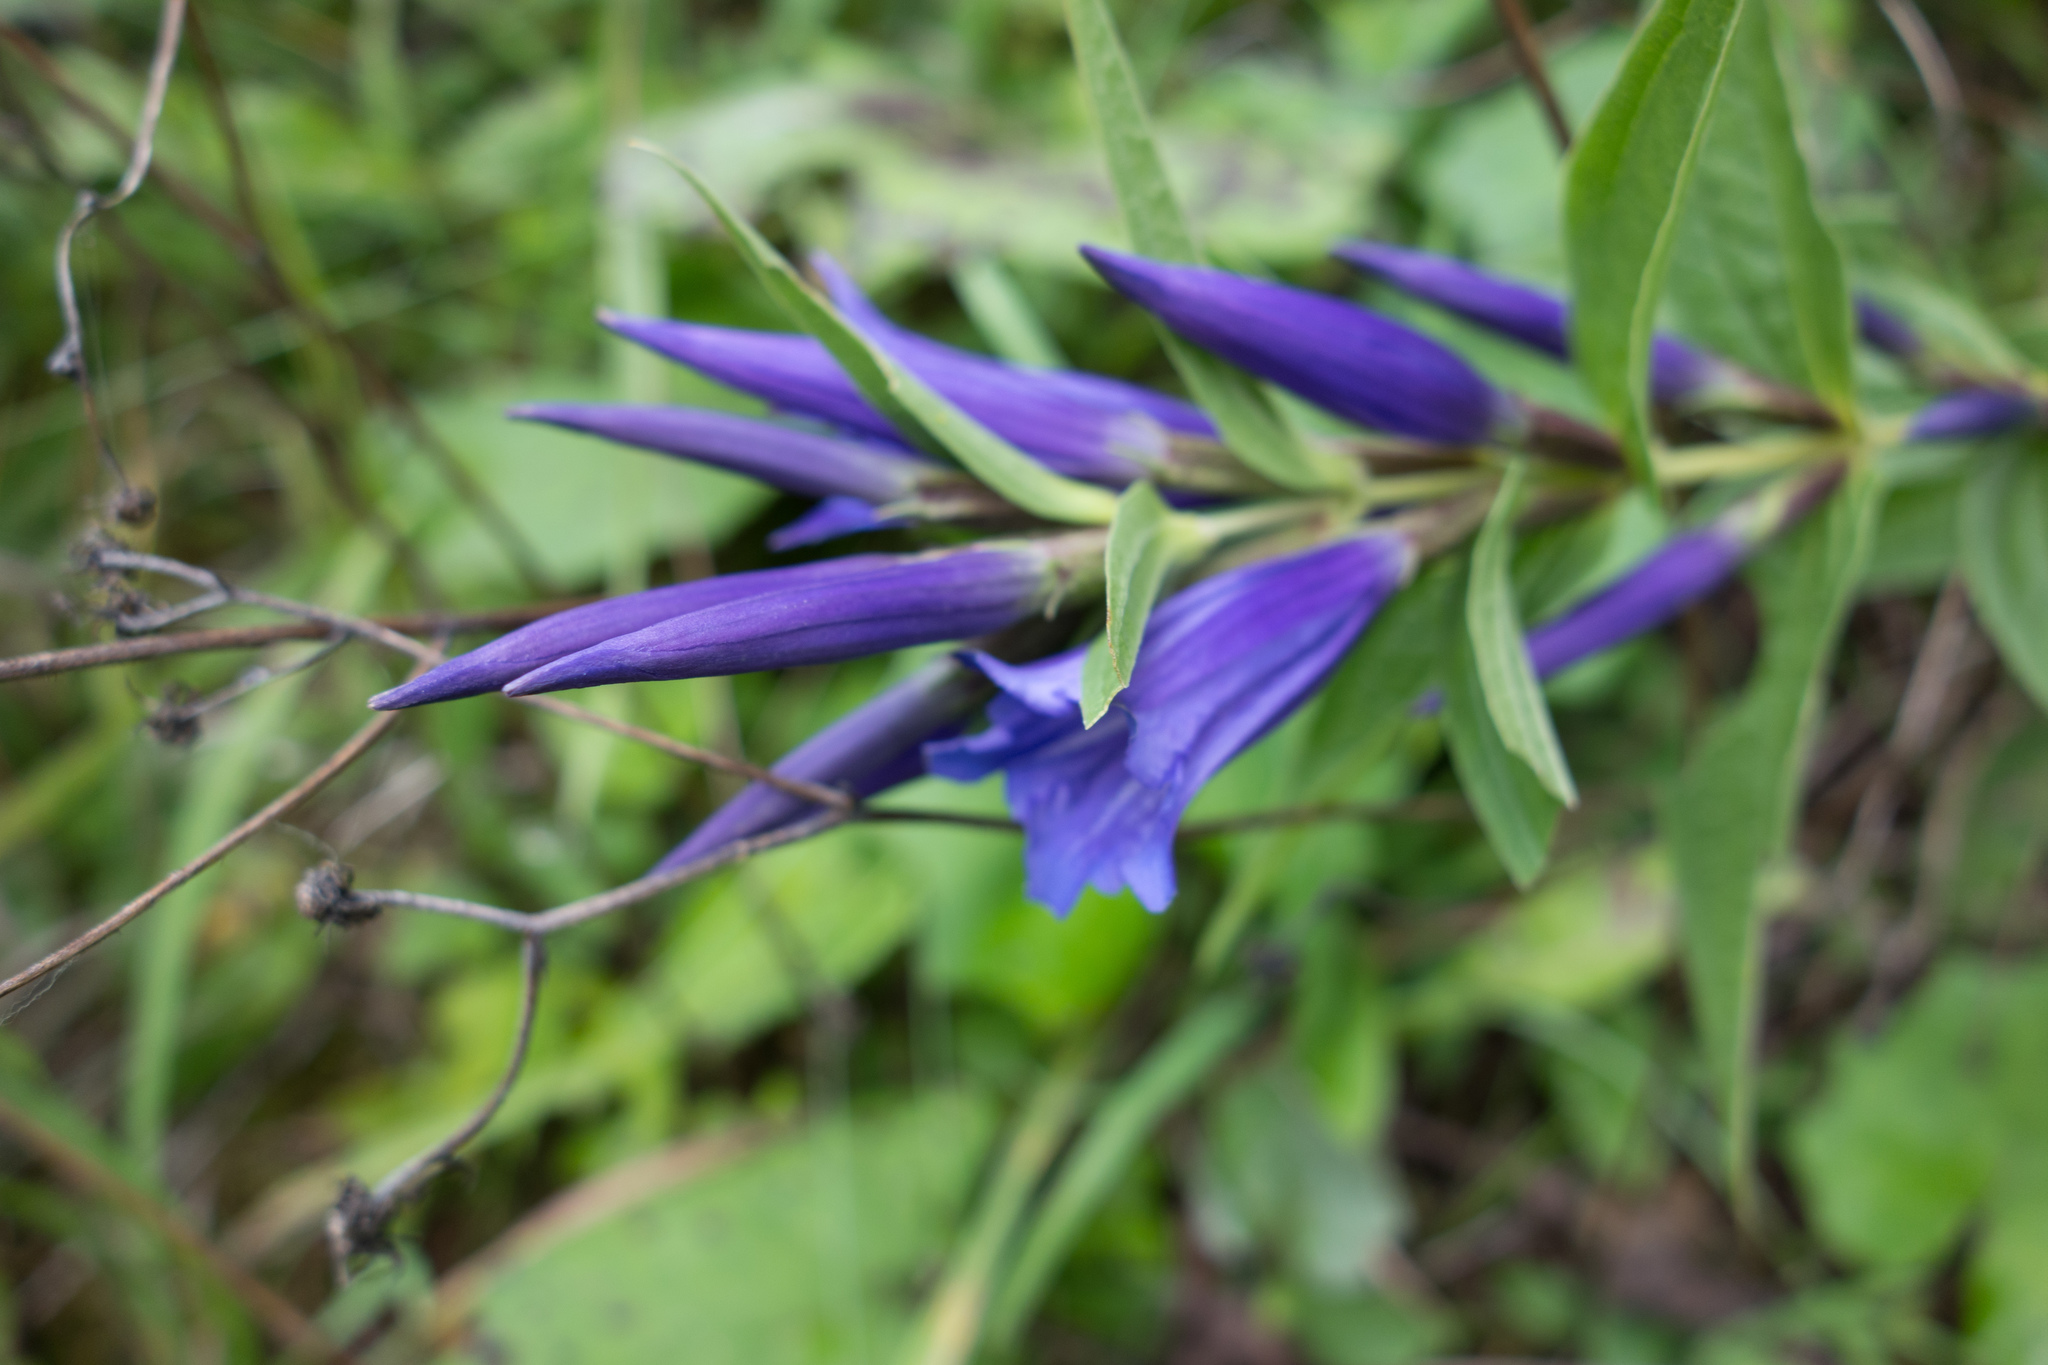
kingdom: Plantae
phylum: Tracheophyta
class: Magnoliopsida
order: Gentianales
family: Gentianaceae
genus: Gentiana
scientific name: Gentiana asclepiadea
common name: Willow gentian
